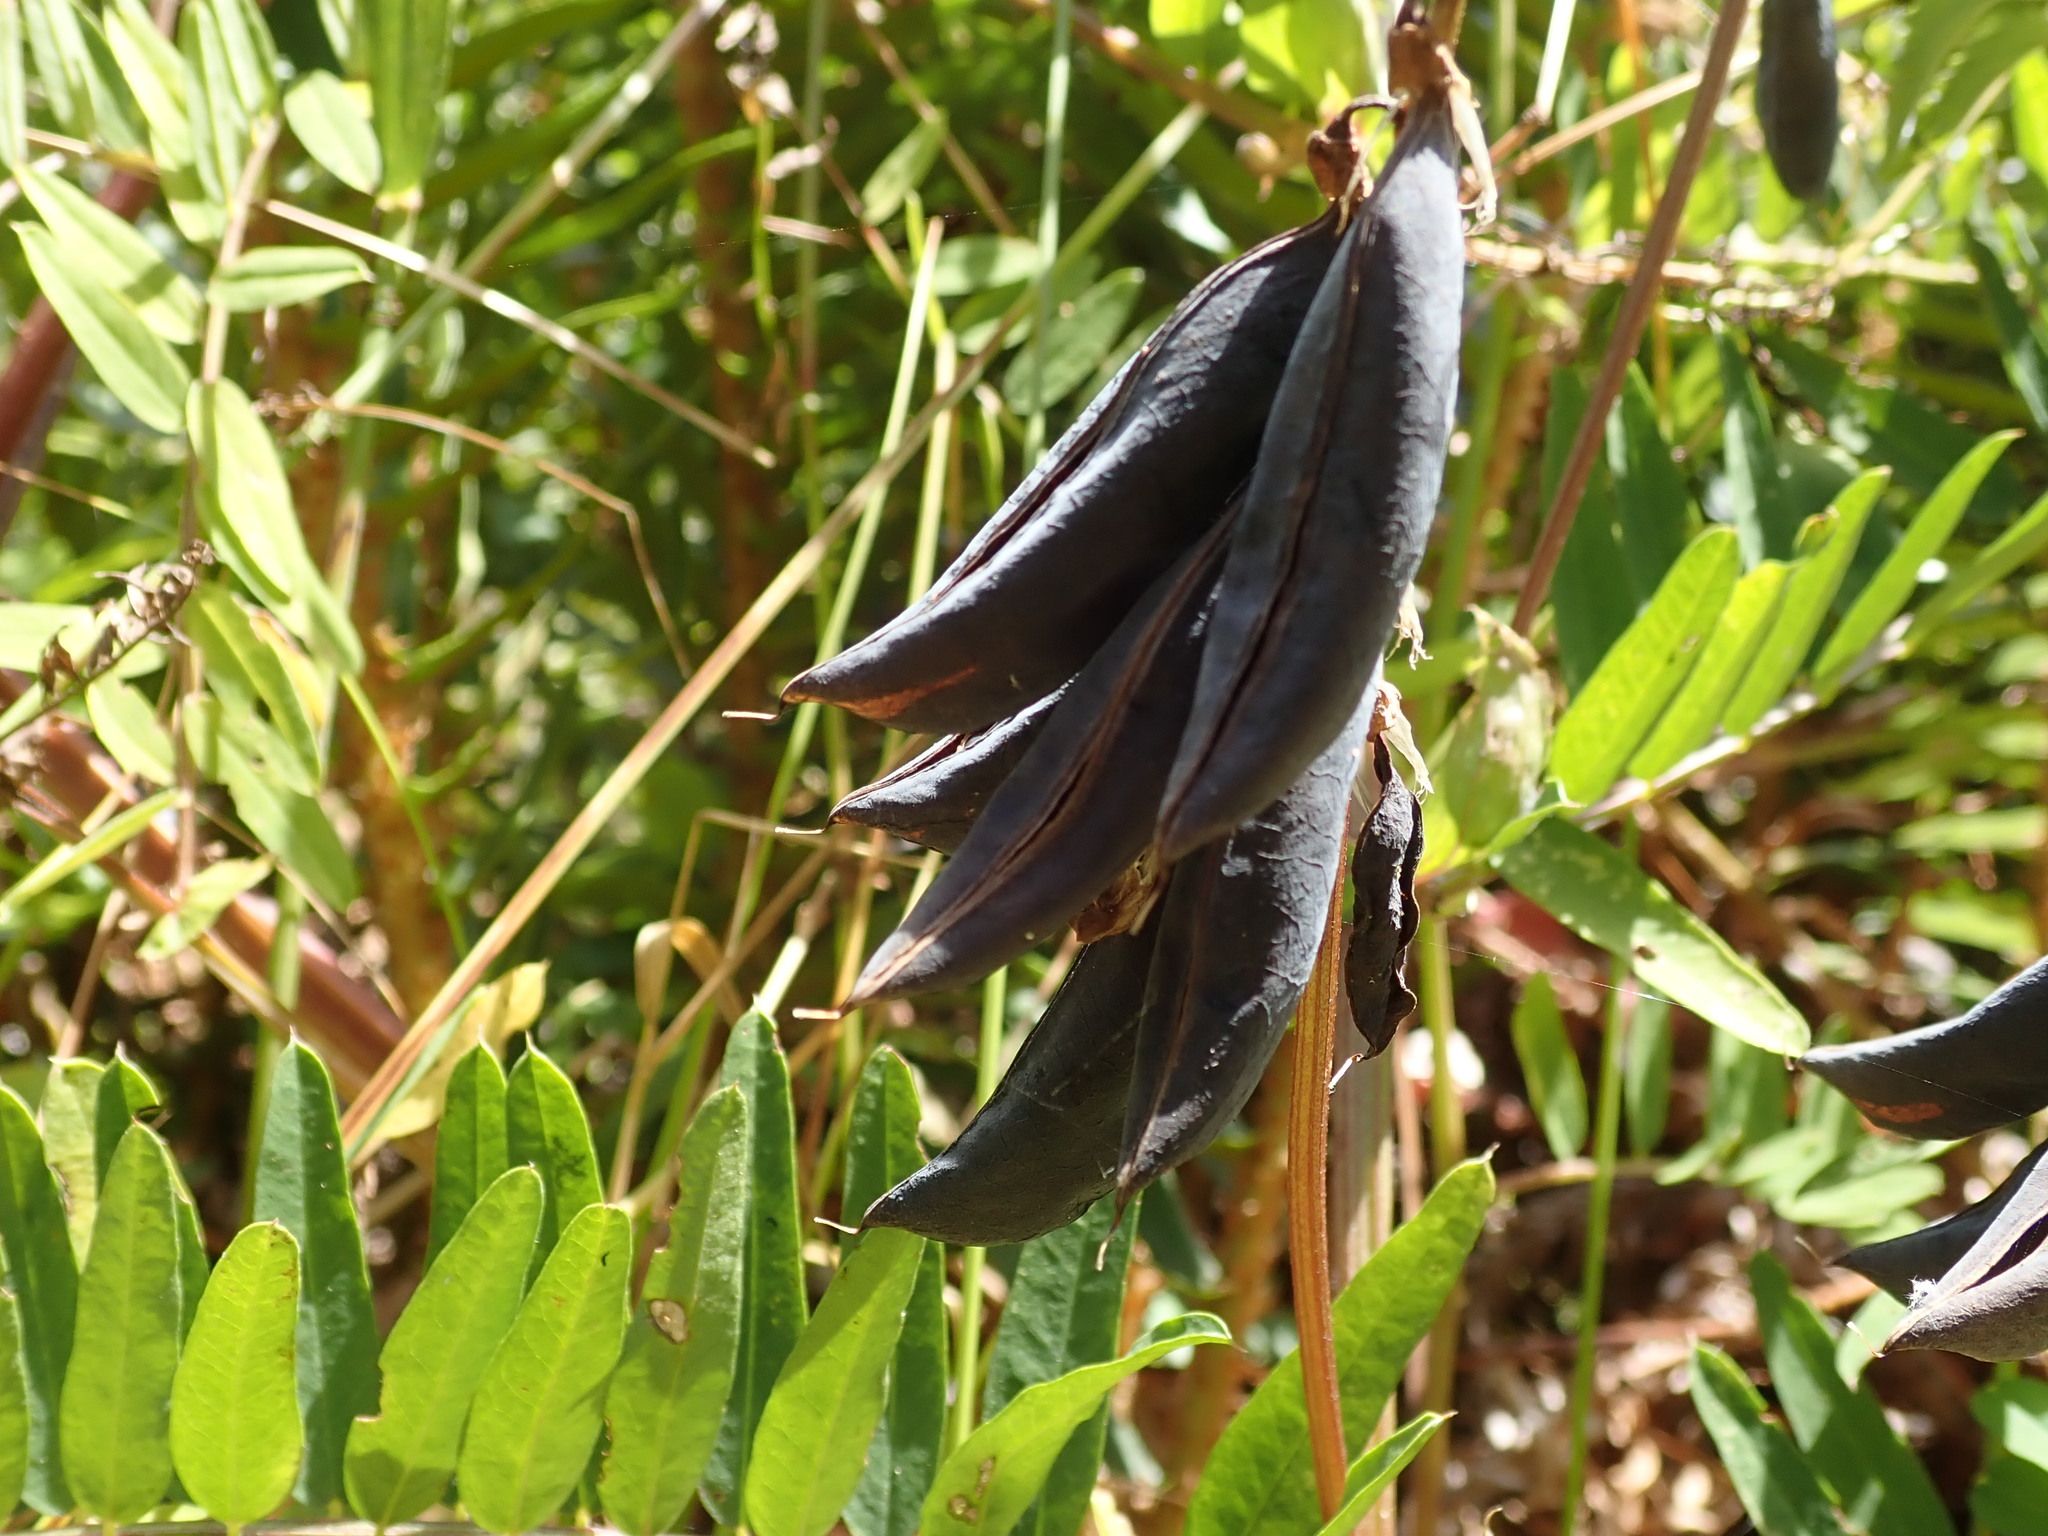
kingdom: Plantae
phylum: Tracheophyta
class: Magnoliopsida
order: Fabales
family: Fabaceae
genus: Vicia
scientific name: Vicia
